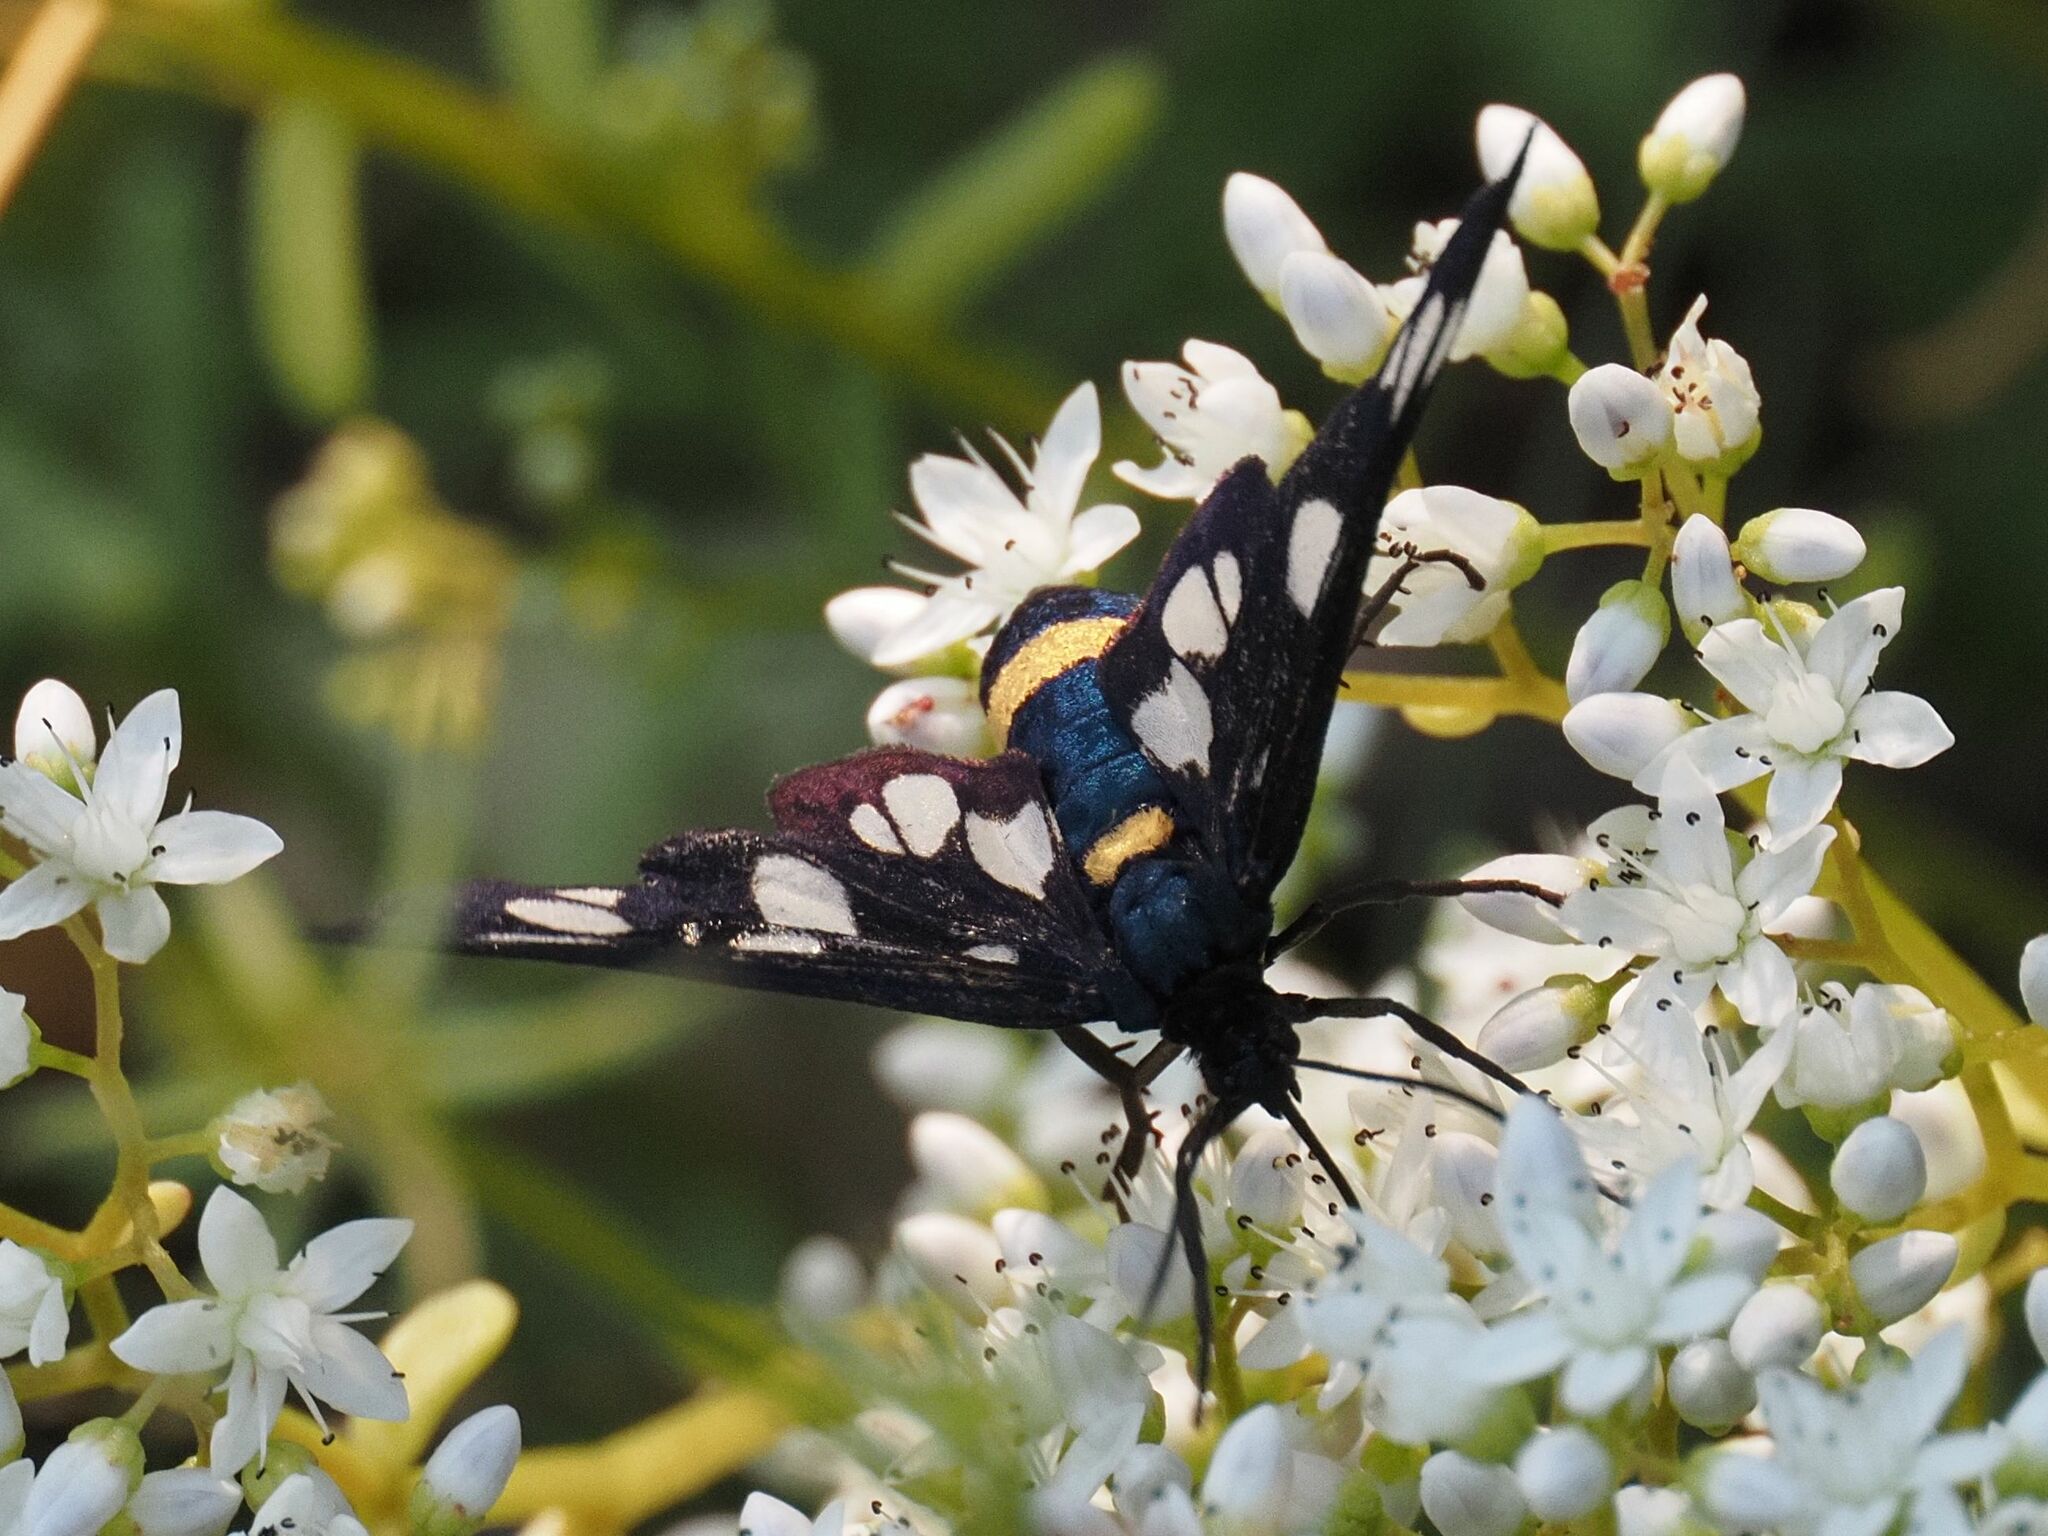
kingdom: Animalia
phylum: Arthropoda
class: Insecta
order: Lepidoptera
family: Erebidae
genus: Amata
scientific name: Amata phegea
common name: Nine-spotted
